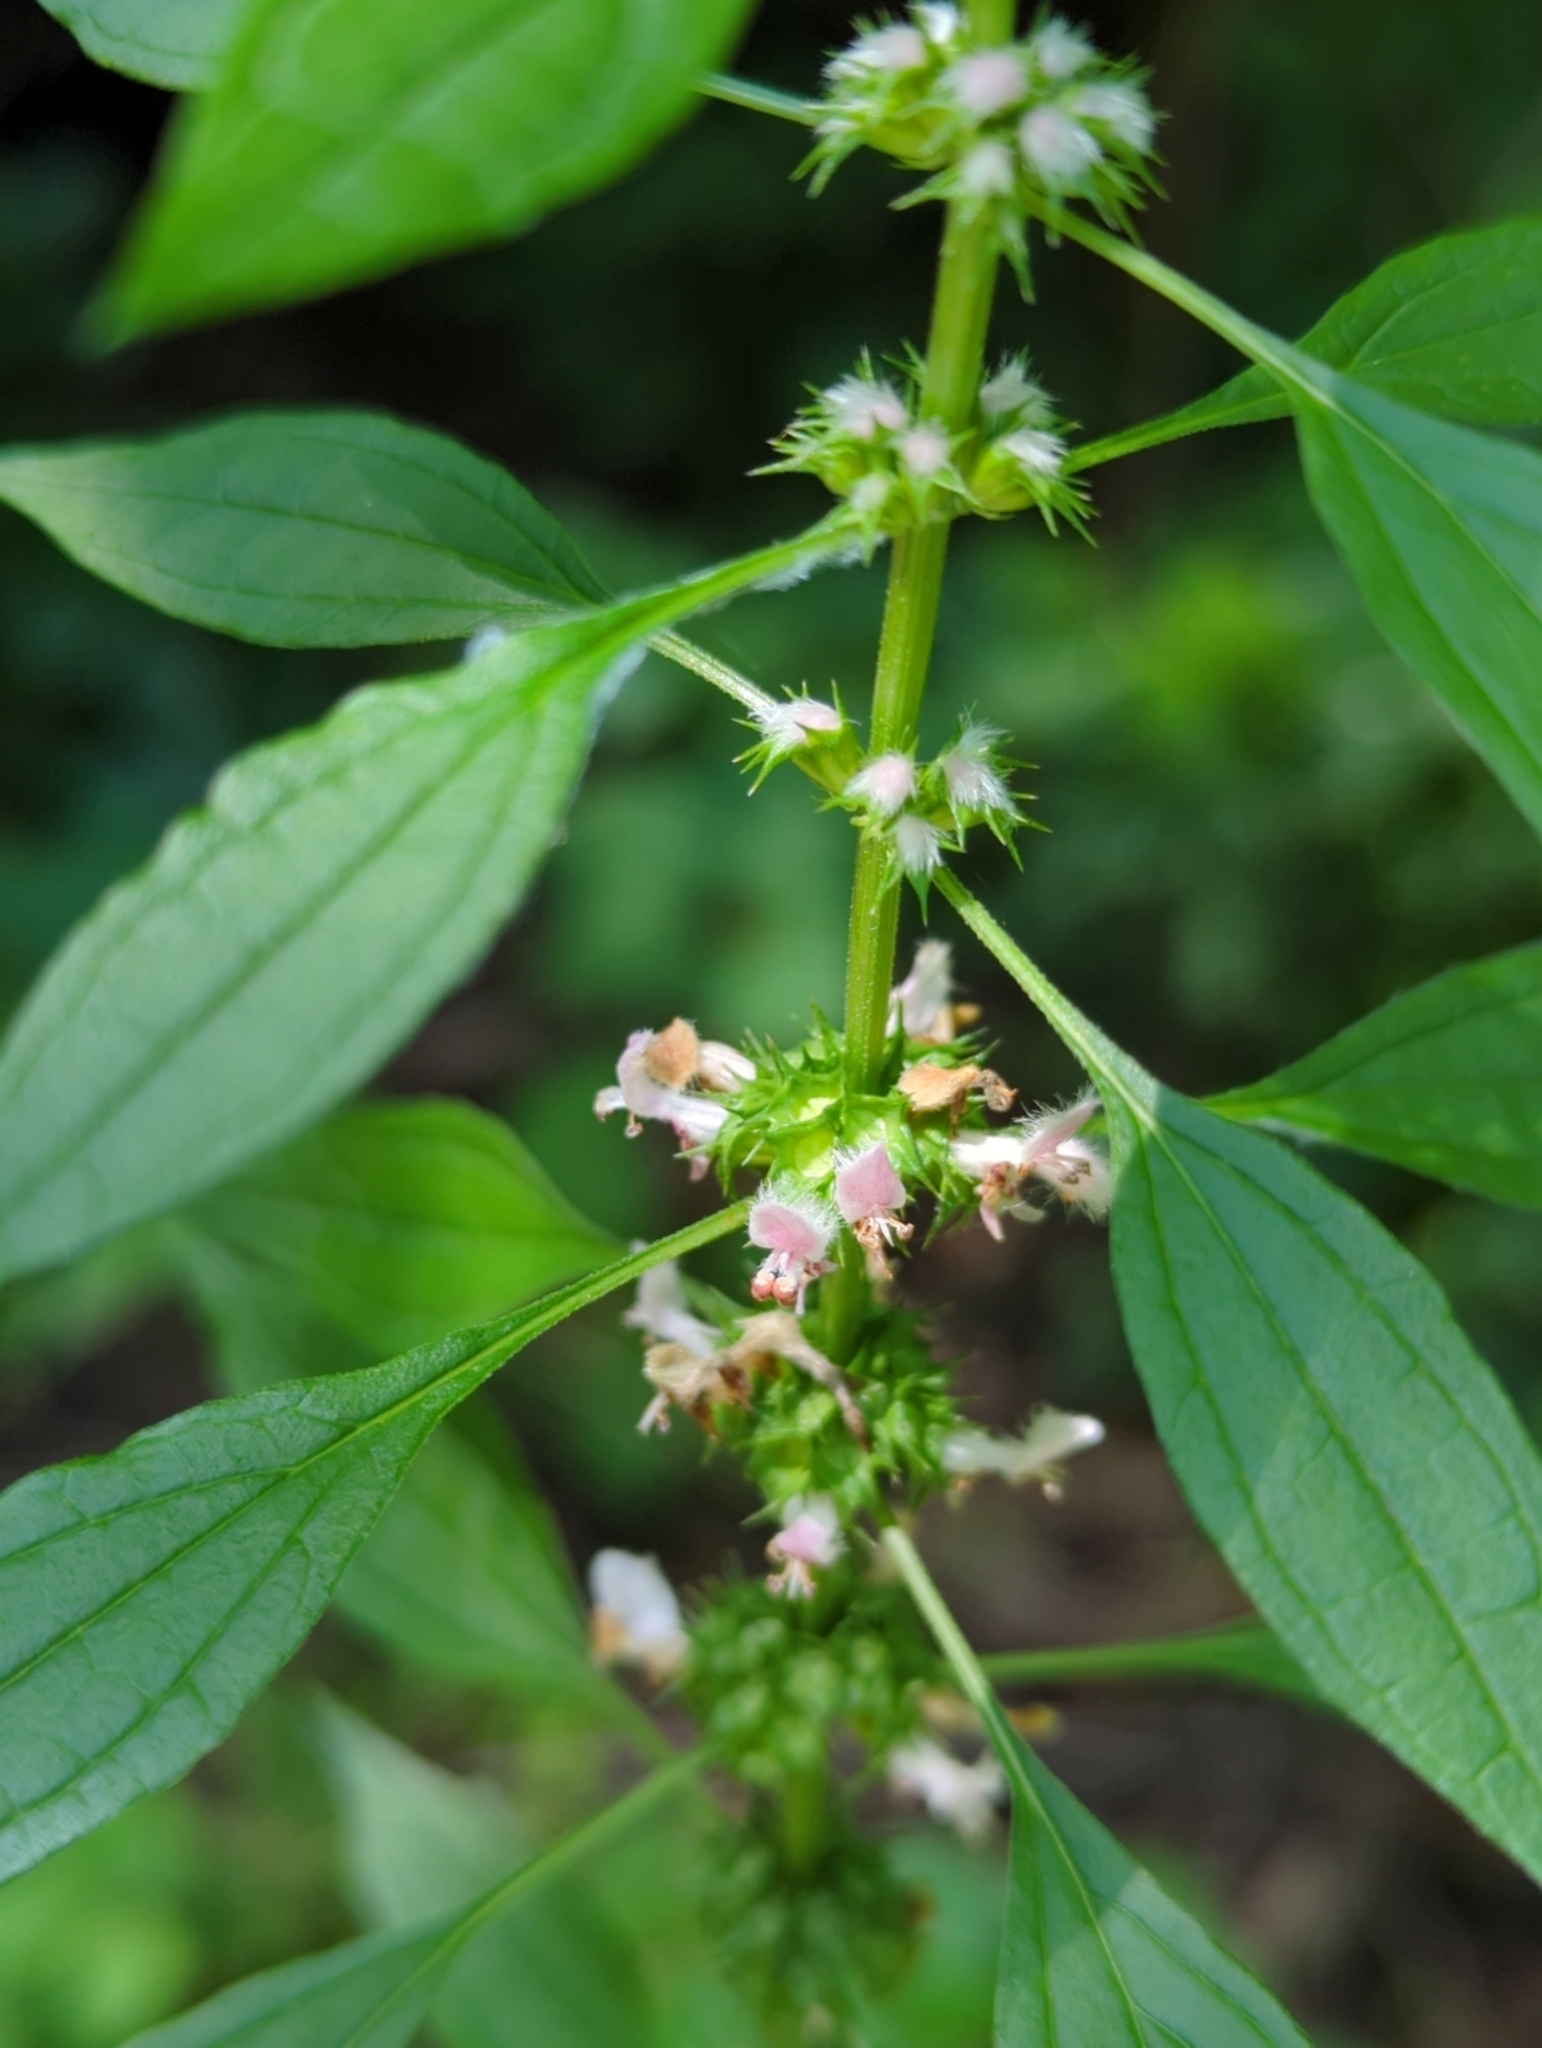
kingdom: Plantae
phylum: Tracheophyta
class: Magnoliopsida
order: Lamiales
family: Lamiaceae
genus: Leonurus
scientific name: Leonurus cardiaca
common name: Motherwort
